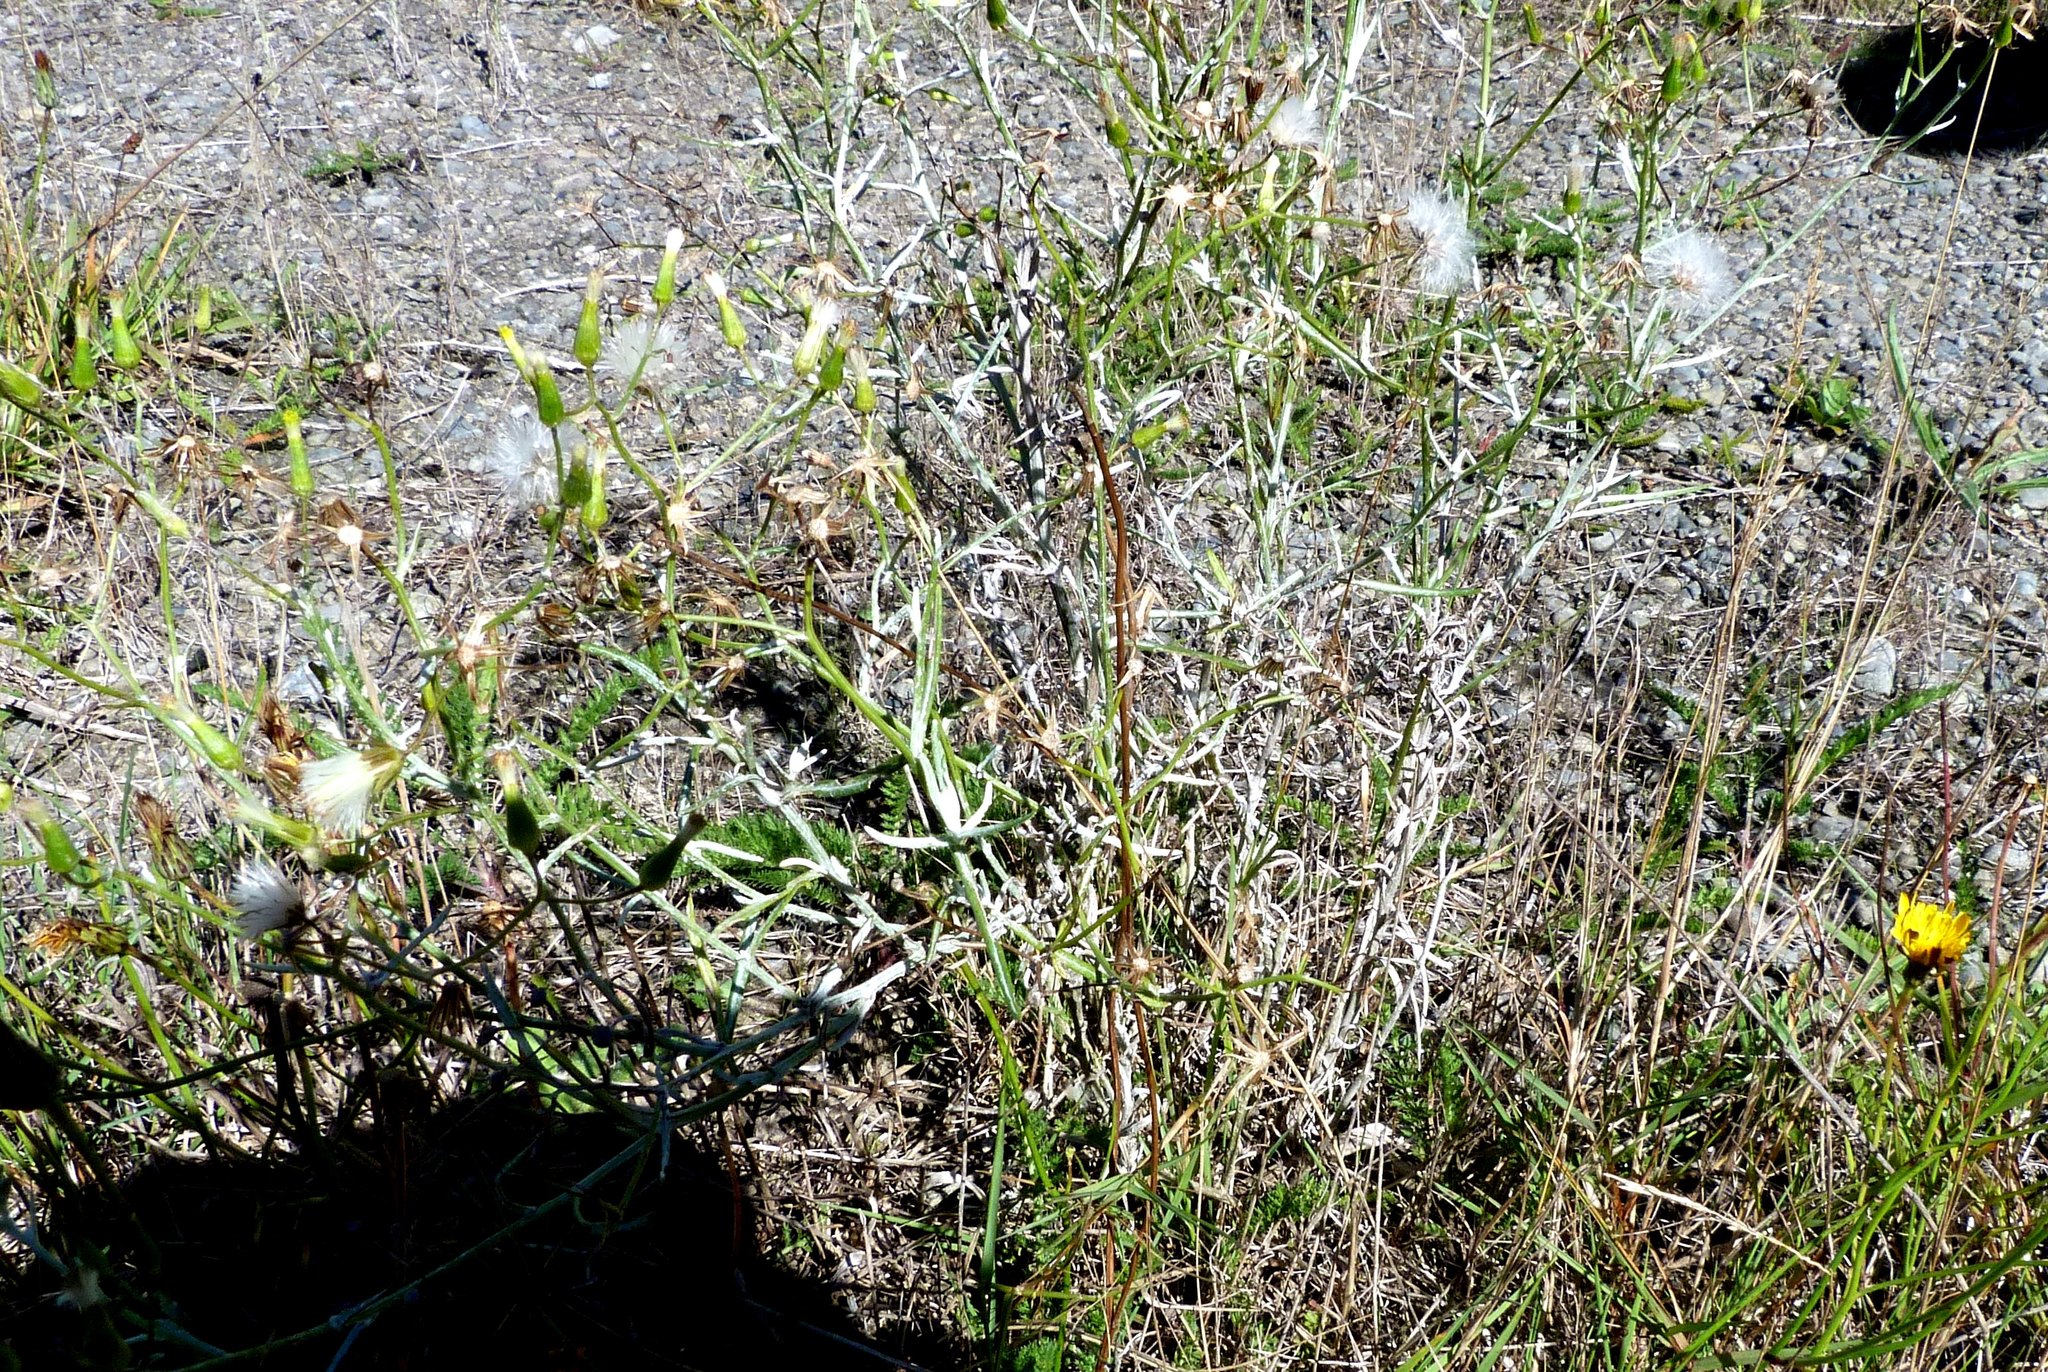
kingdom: Plantae
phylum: Tracheophyta
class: Magnoliopsida
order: Asterales
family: Asteraceae
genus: Senecio
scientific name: Senecio quadridentatus
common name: Cotton fireweed
